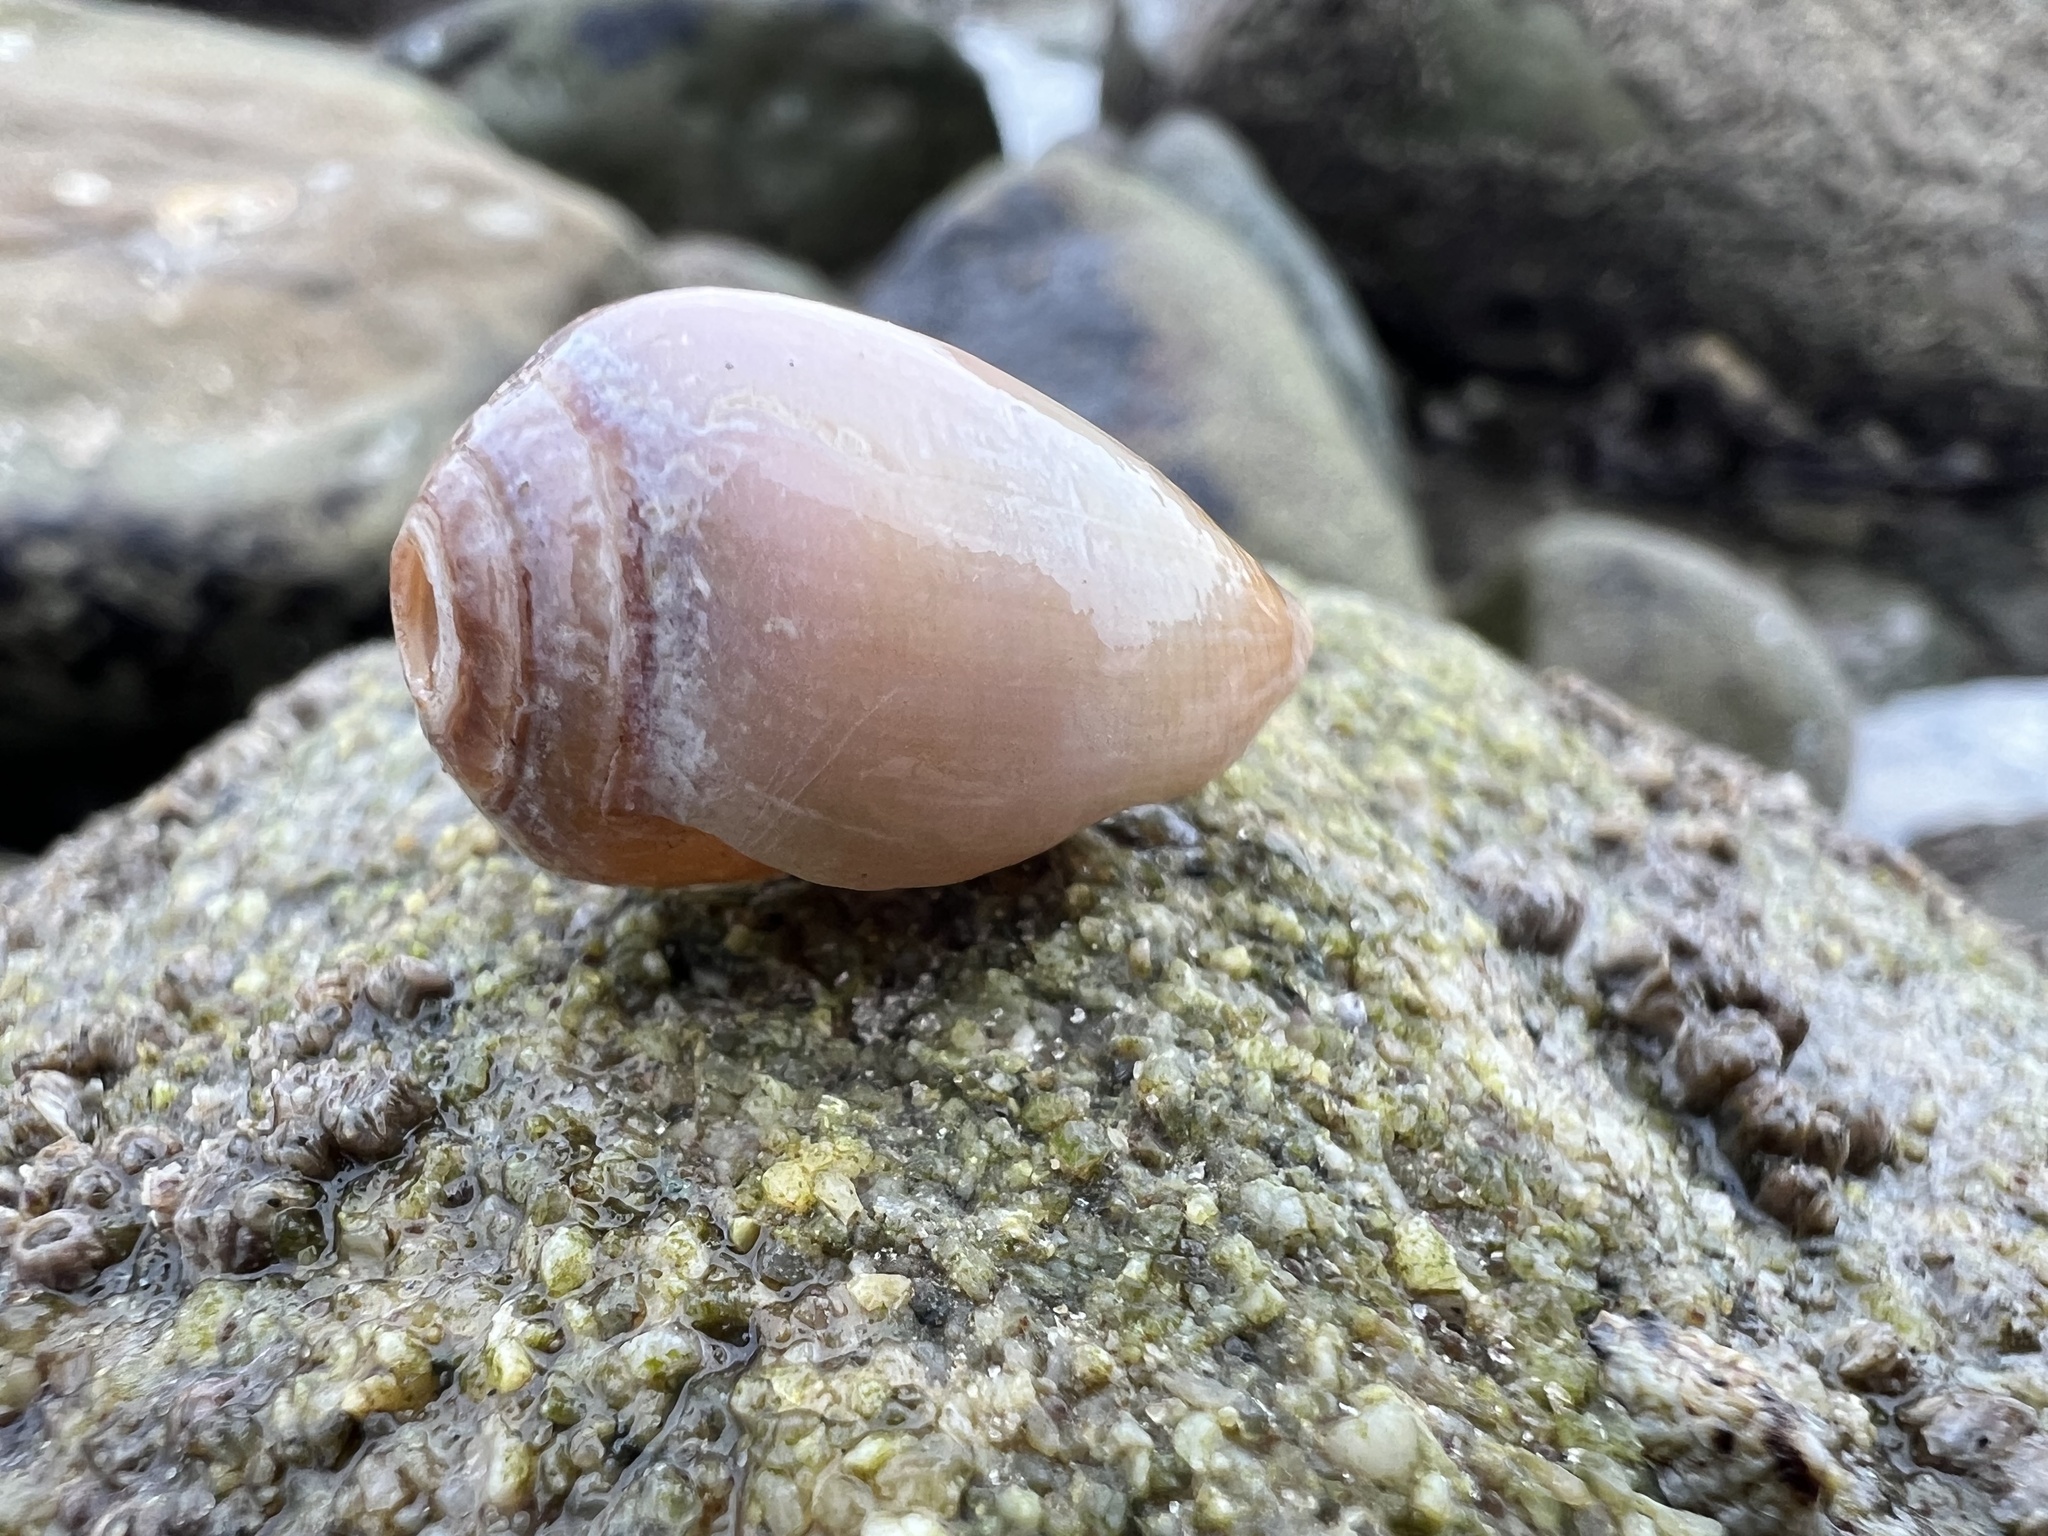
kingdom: Animalia
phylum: Mollusca
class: Gastropoda
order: Neogastropoda
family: Conidae
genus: Californiconus
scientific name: Californiconus californicus
